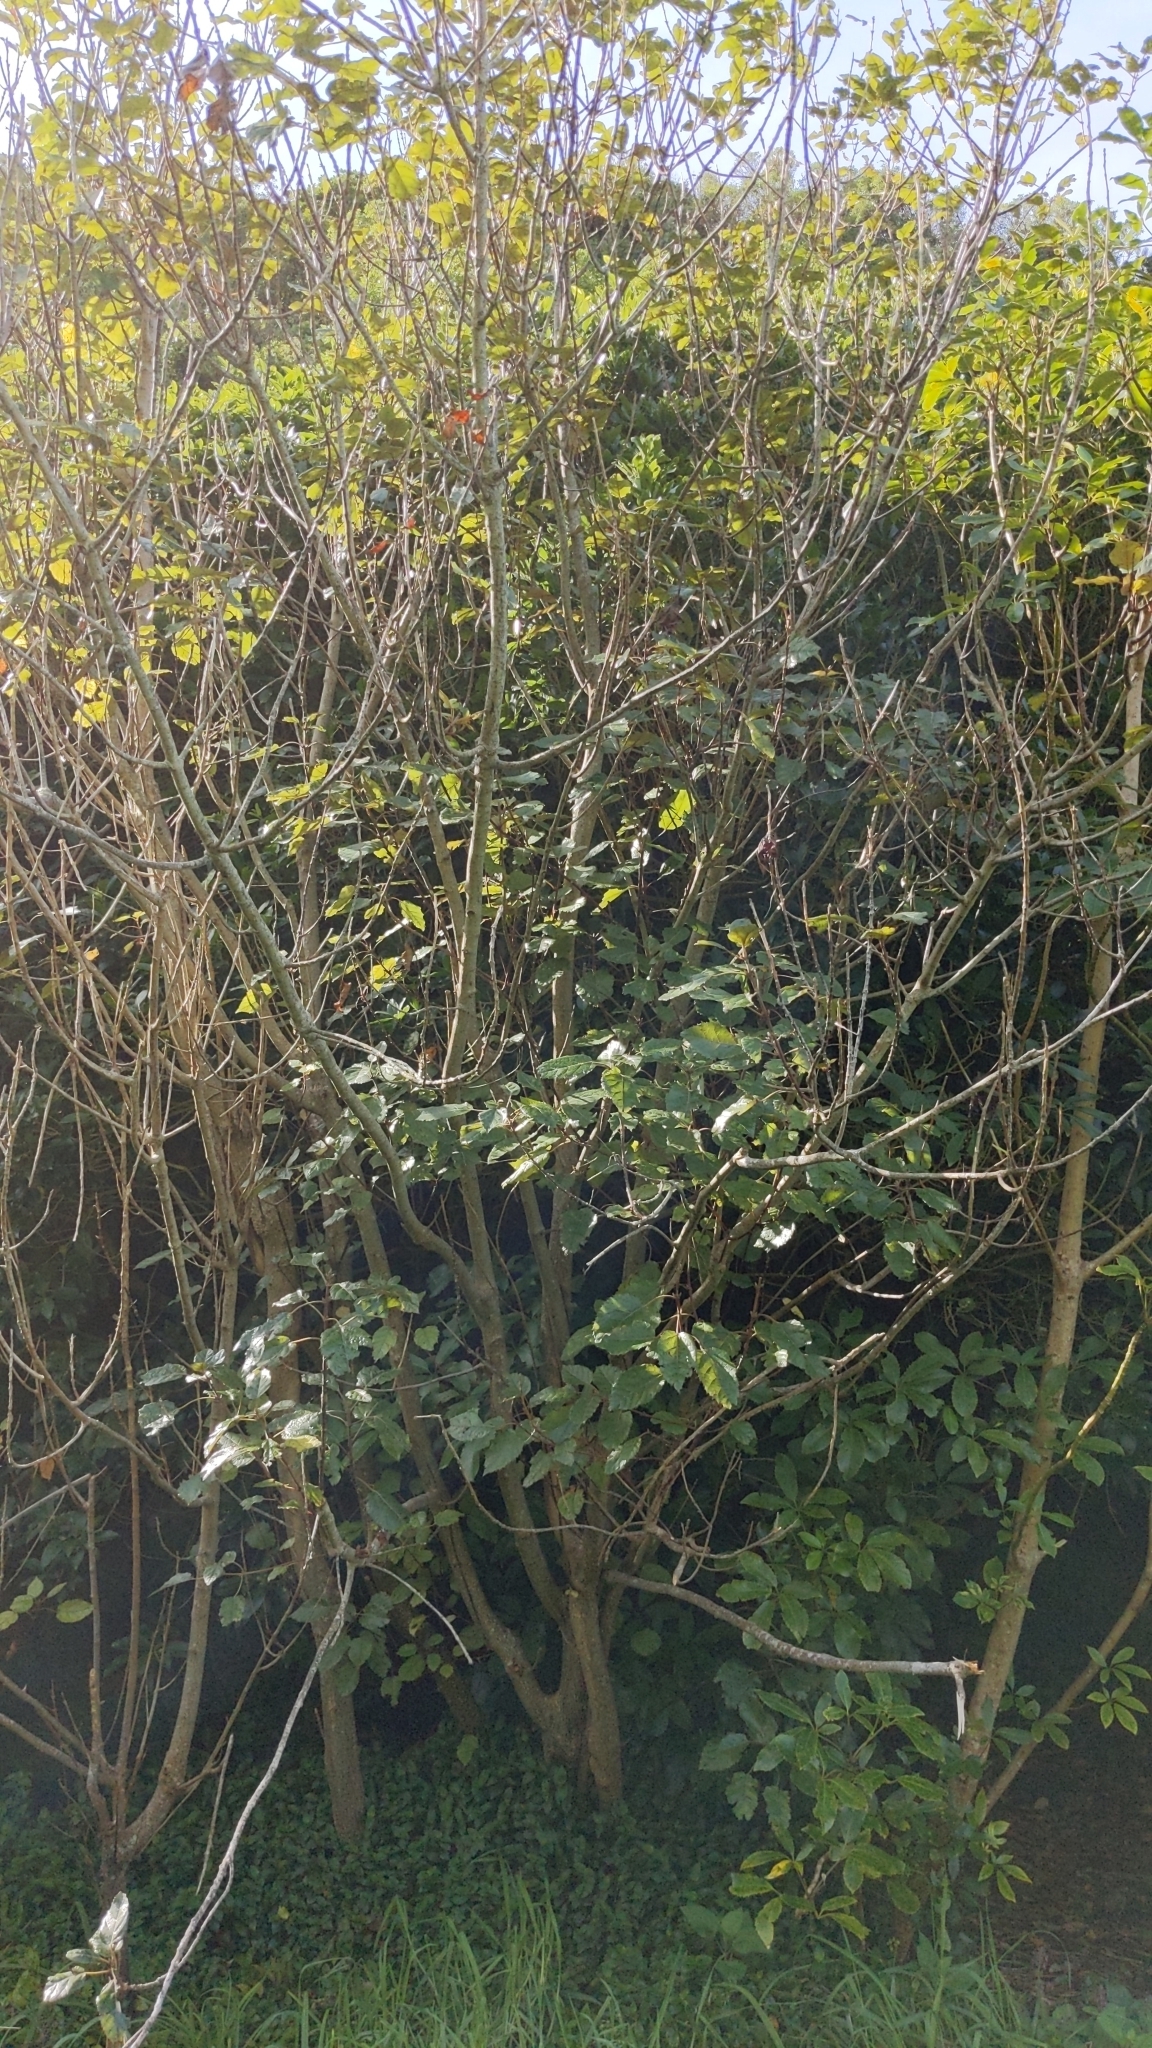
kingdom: Plantae
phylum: Tracheophyta
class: Magnoliopsida
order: Oxalidales
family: Elaeocarpaceae
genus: Aristotelia
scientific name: Aristotelia serrata
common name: New zealand wineberry
